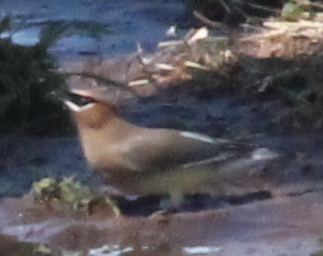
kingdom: Animalia
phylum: Chordata
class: Aves
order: Passeriformes
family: Bombycillidae
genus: Bombycilla
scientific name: Bombycilla cedrorum
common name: Cedar waxwing
